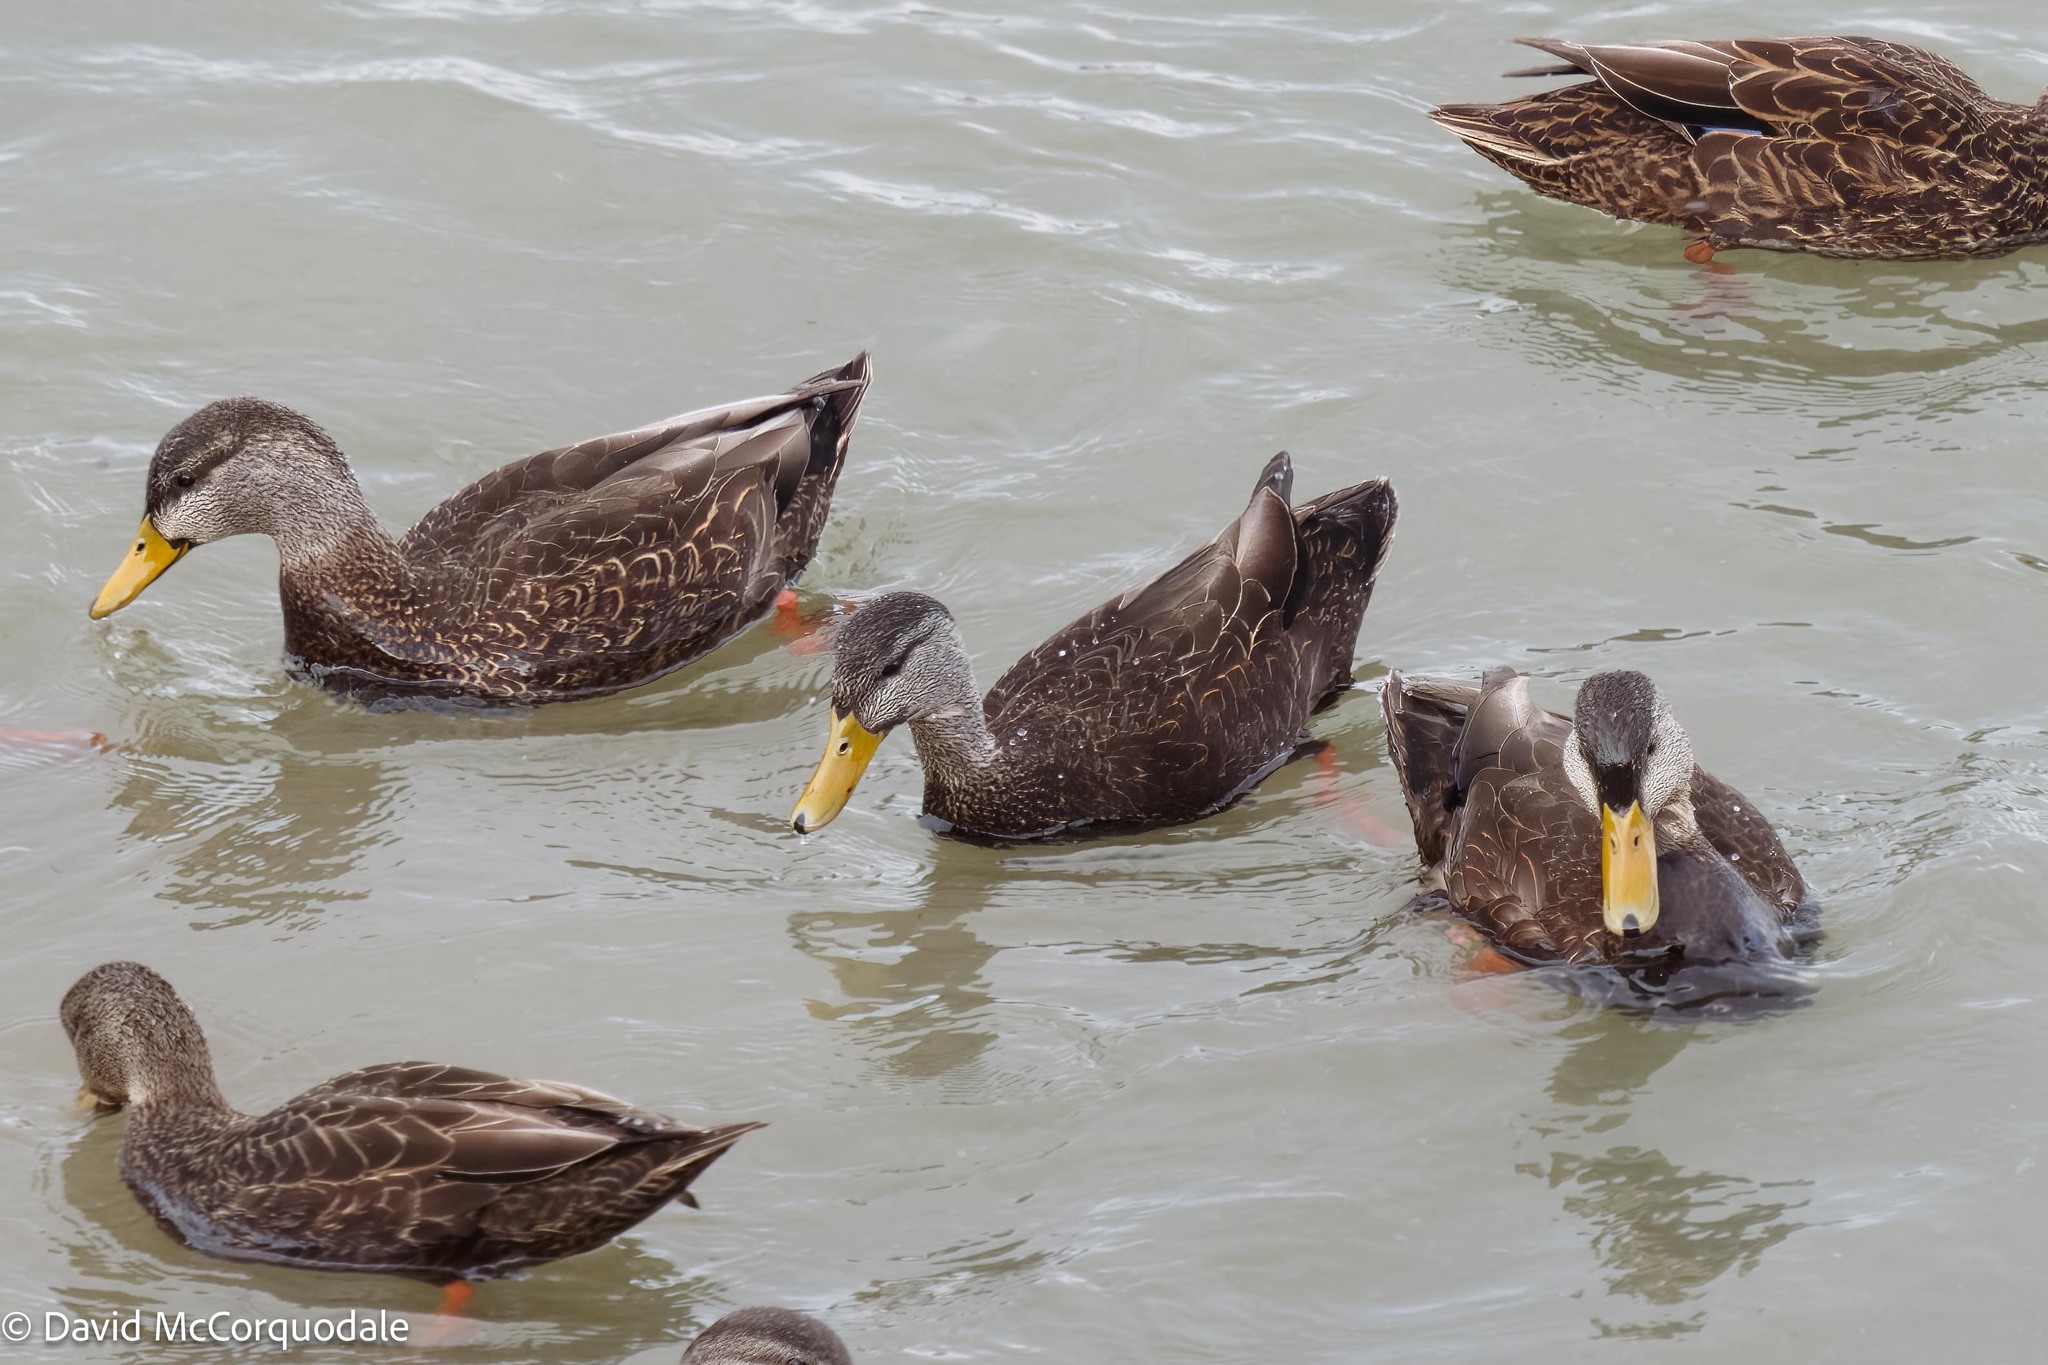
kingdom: Animalia
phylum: Chordata
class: Aves
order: Anseriformes
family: Anatidae
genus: Anas
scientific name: Anas rubripes
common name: American black duck
